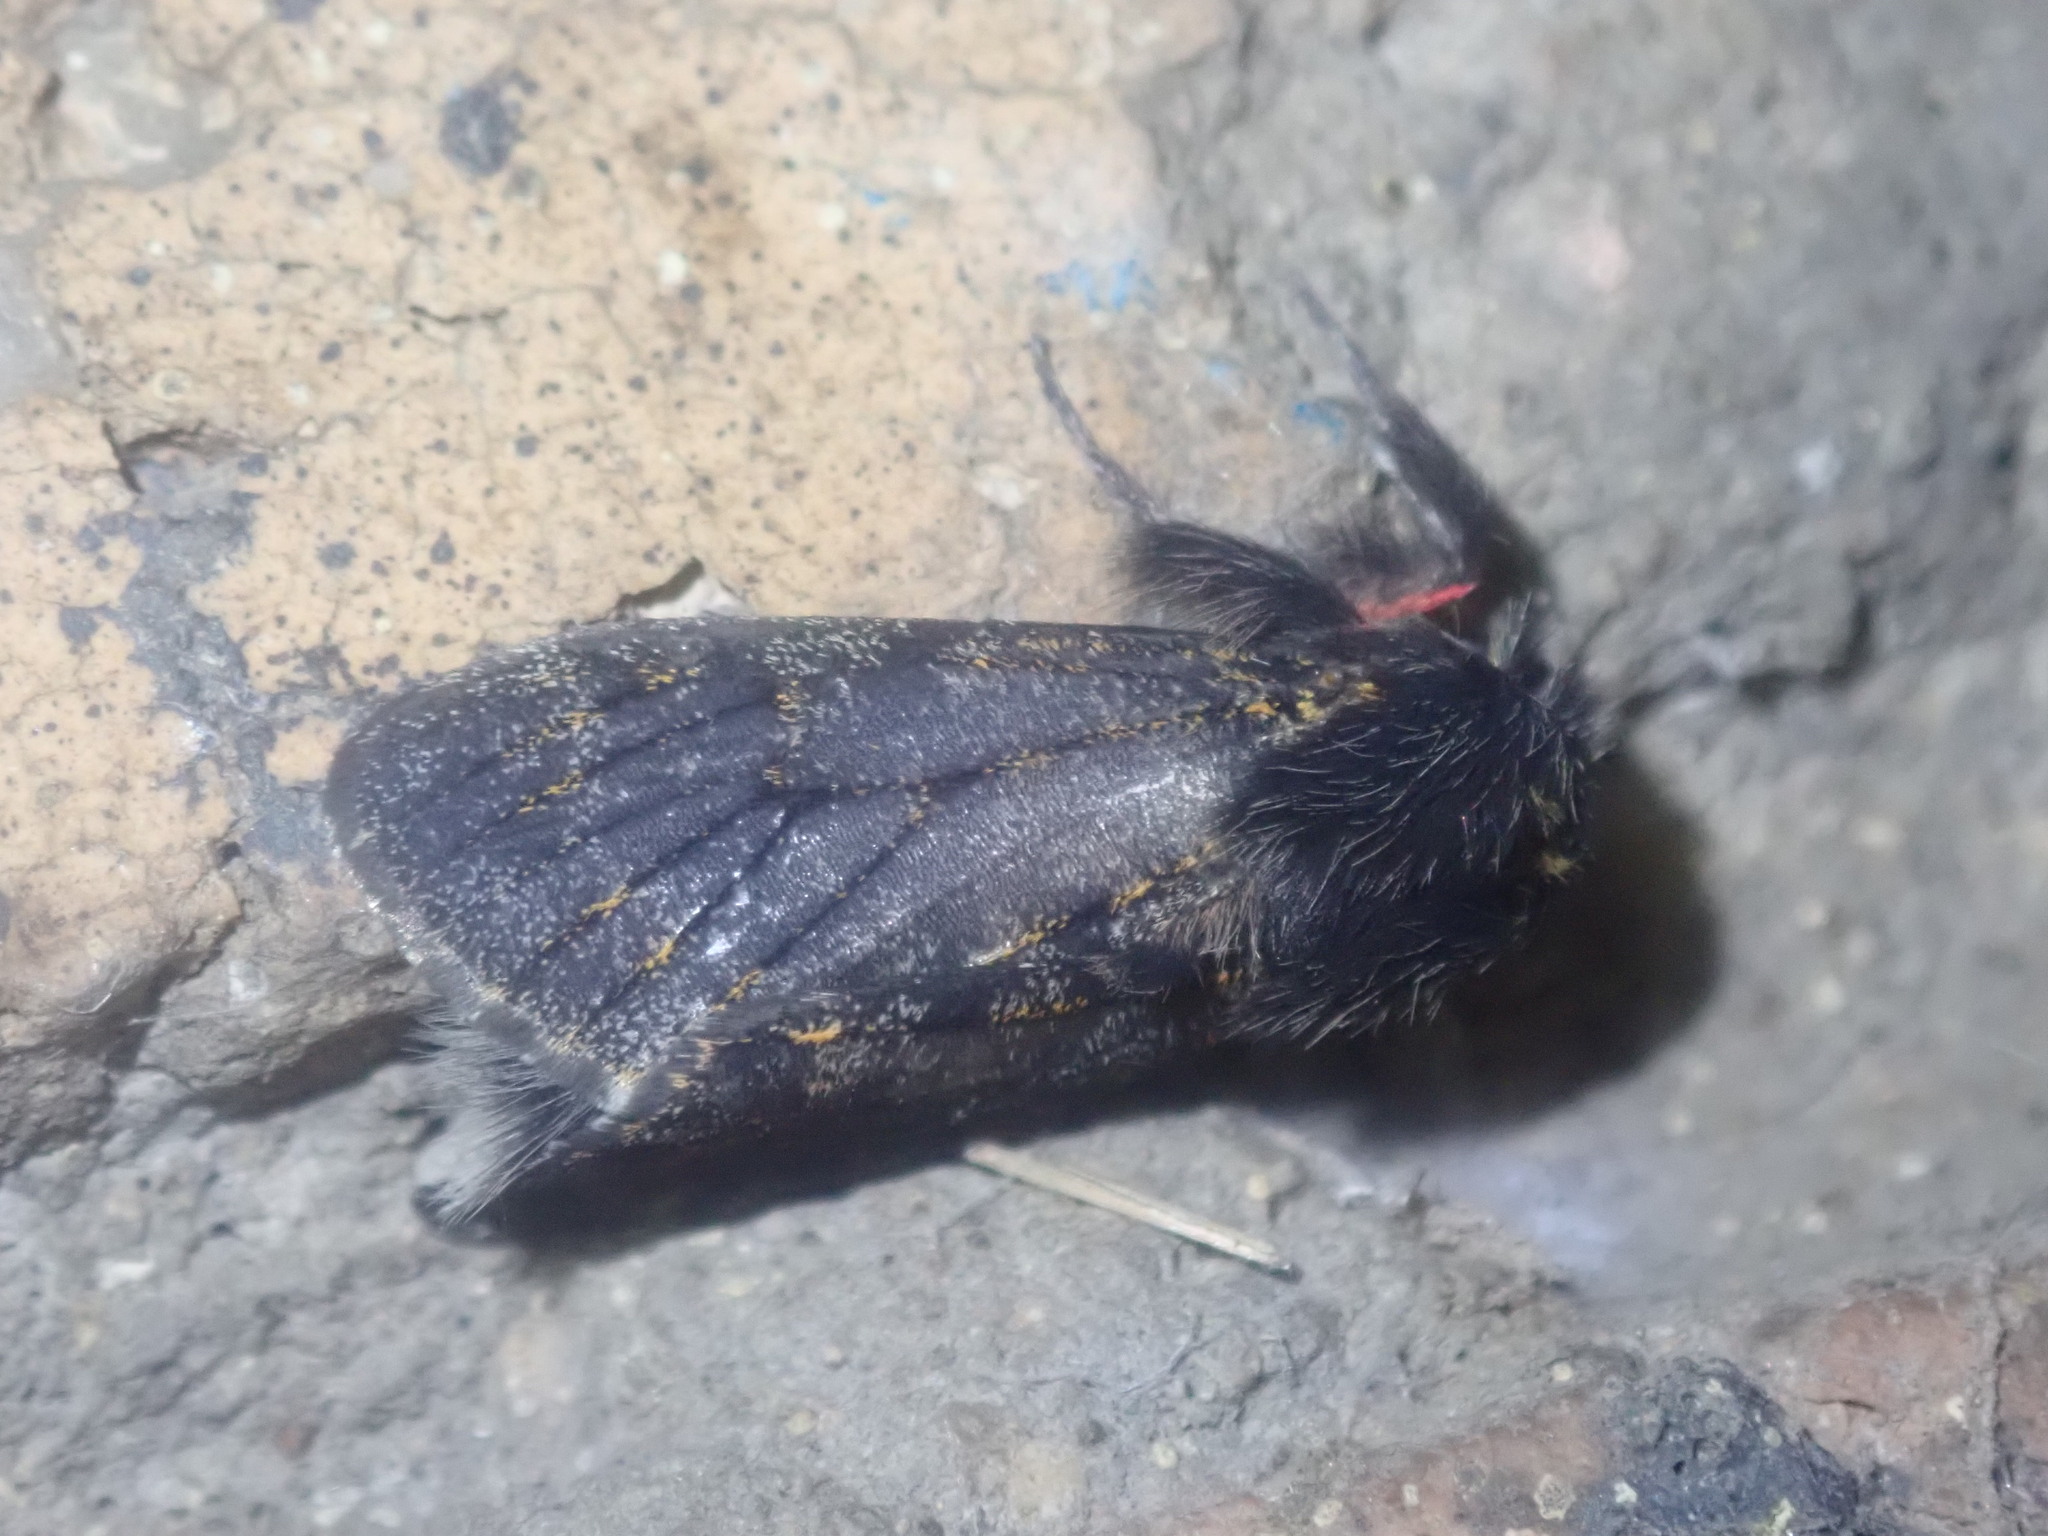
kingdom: Animalia
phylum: Arthropoda
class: Insecta
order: Lepidoptera
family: Erebidae
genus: Polymona
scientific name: Polymona rufifemur
